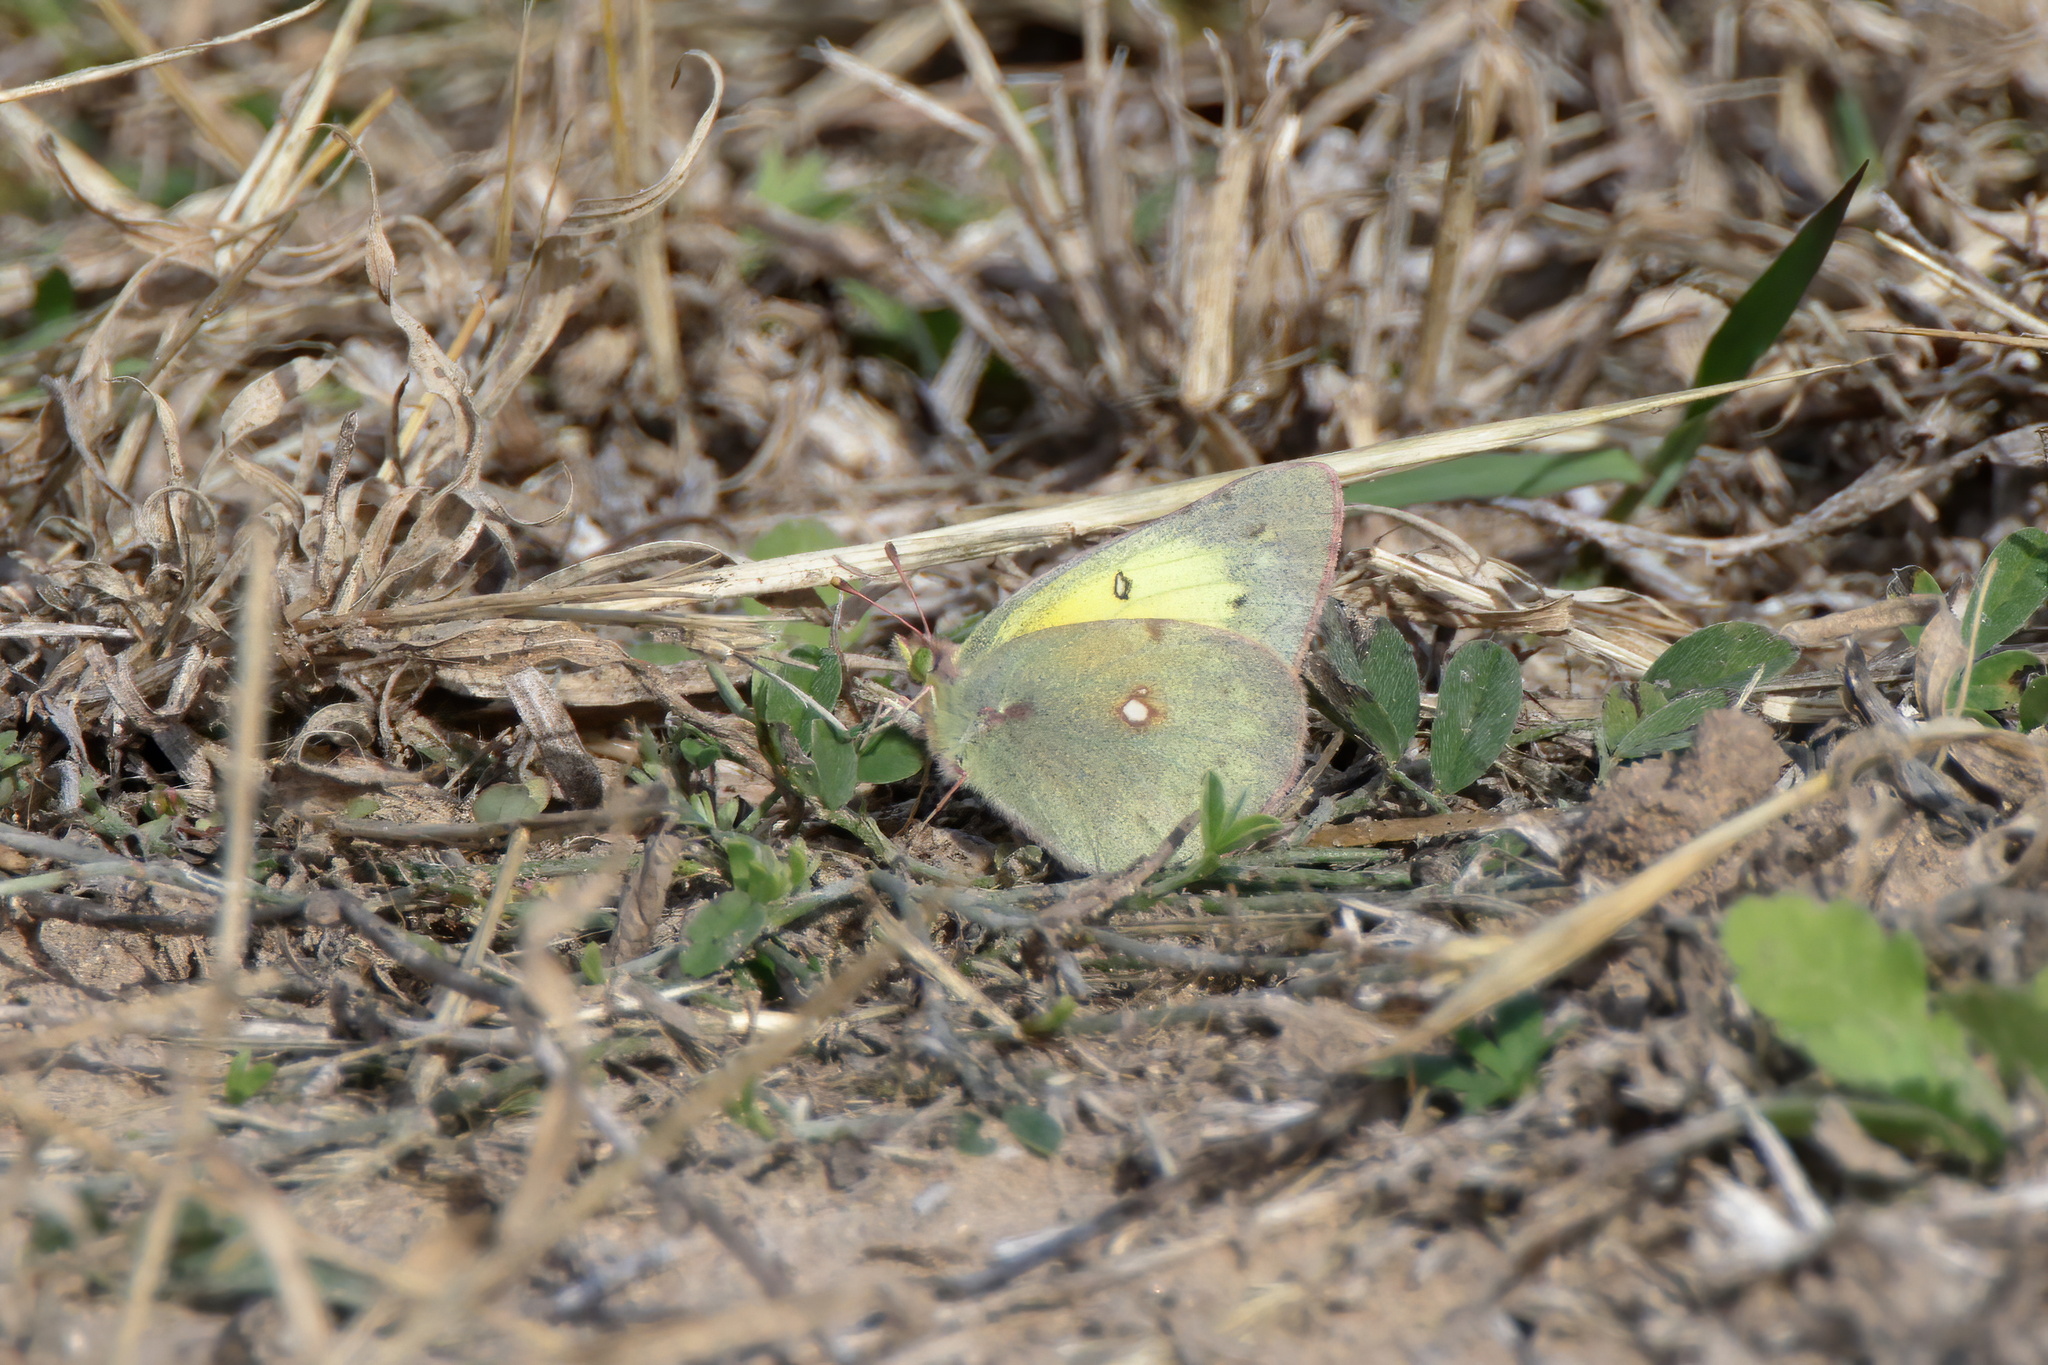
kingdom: Animalia
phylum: Arthropoda
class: Insecta
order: Lepidoptera
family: Pieridae
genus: Colias
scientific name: Colias eurytheme
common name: Alfalfa butterfly
